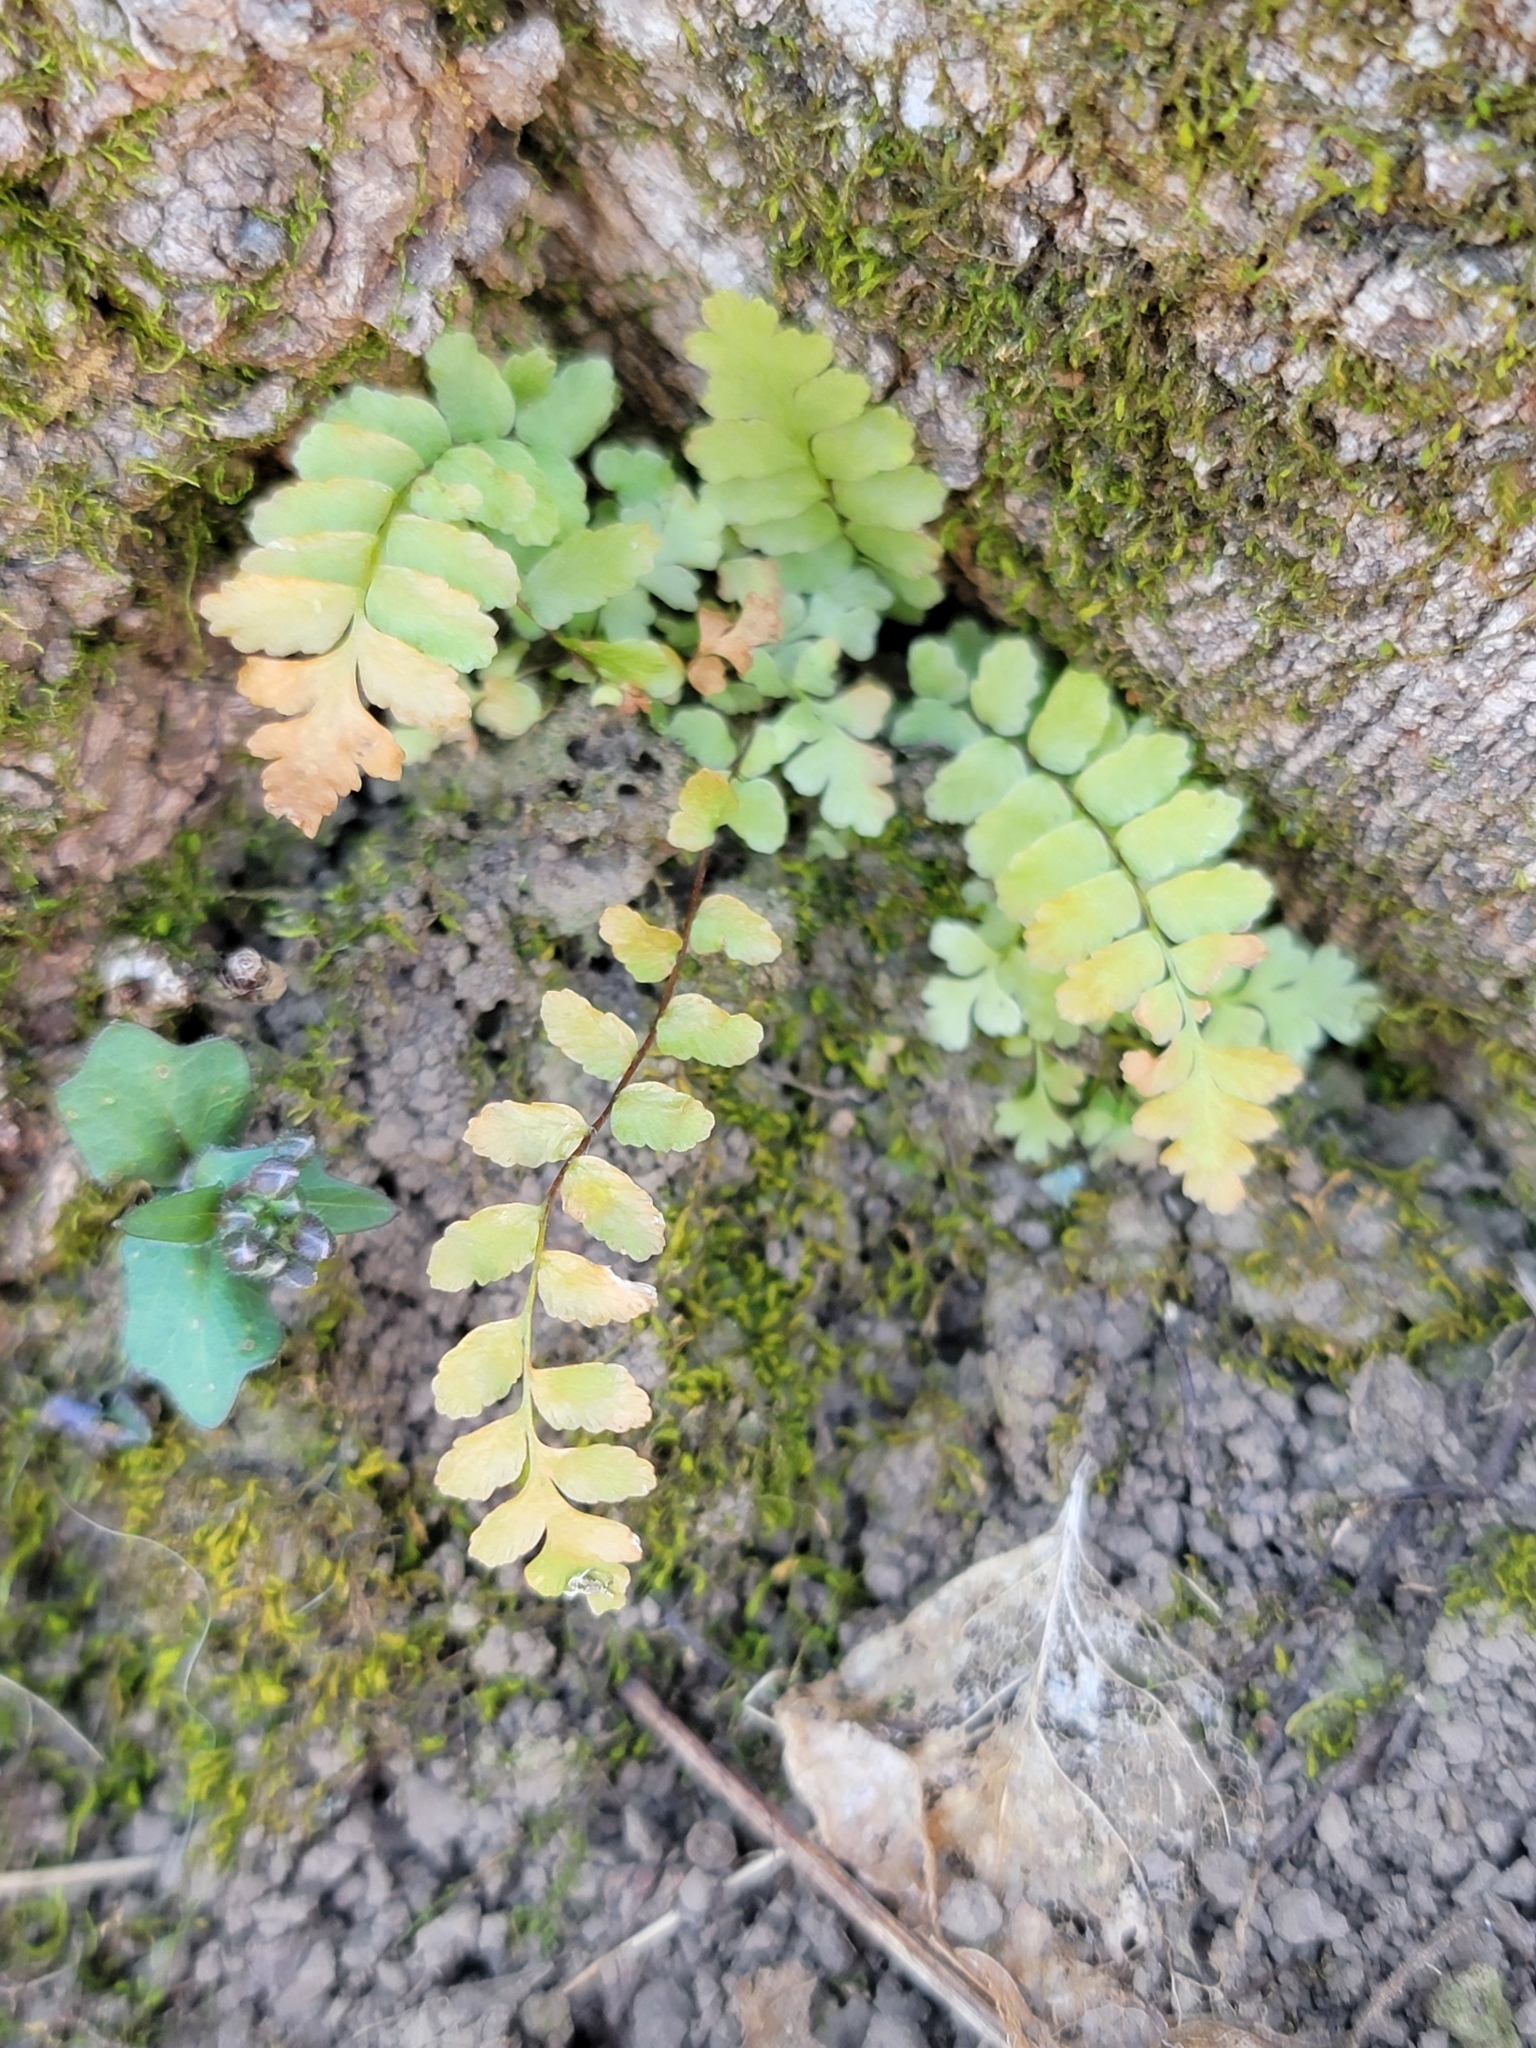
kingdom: Plantae
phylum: Tracheophyta
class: Polypodiopsida
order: Polypodiales
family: Aspleniaceae
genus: Asplenium
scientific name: Asplenium platyneuron
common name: Ebony spleenwort
